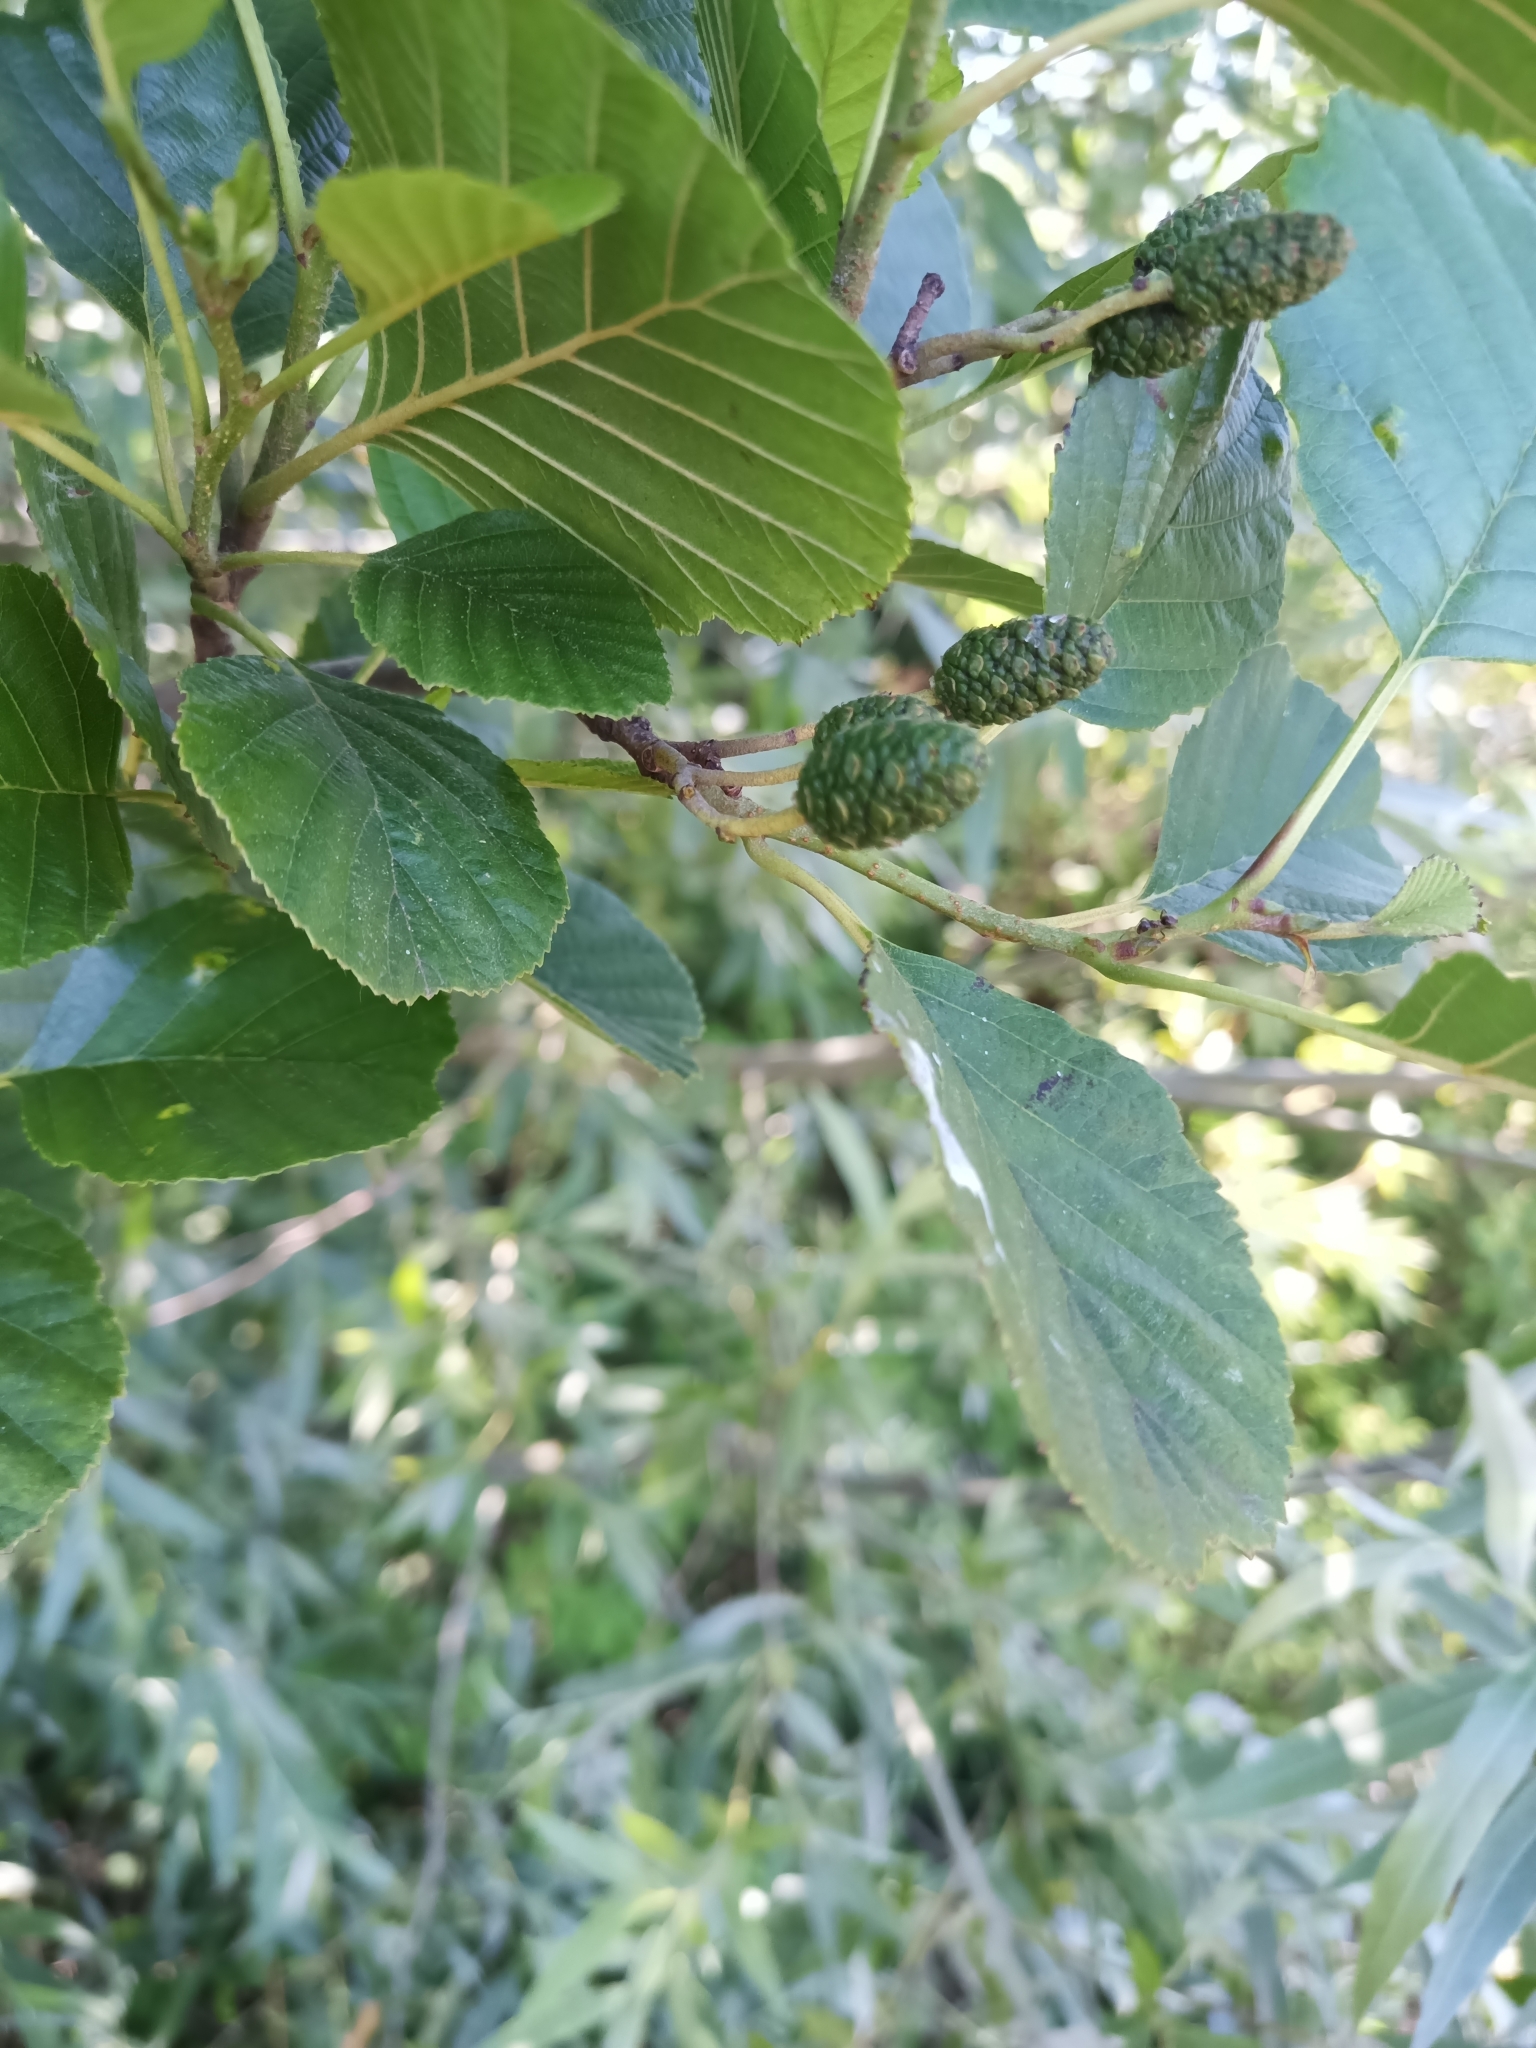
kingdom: Plantae
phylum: Tracheophyta
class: Magnoliopsida
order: Fagales
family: Betulaceae
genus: Alnus
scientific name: Alnus glutinosa
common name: Black alder
